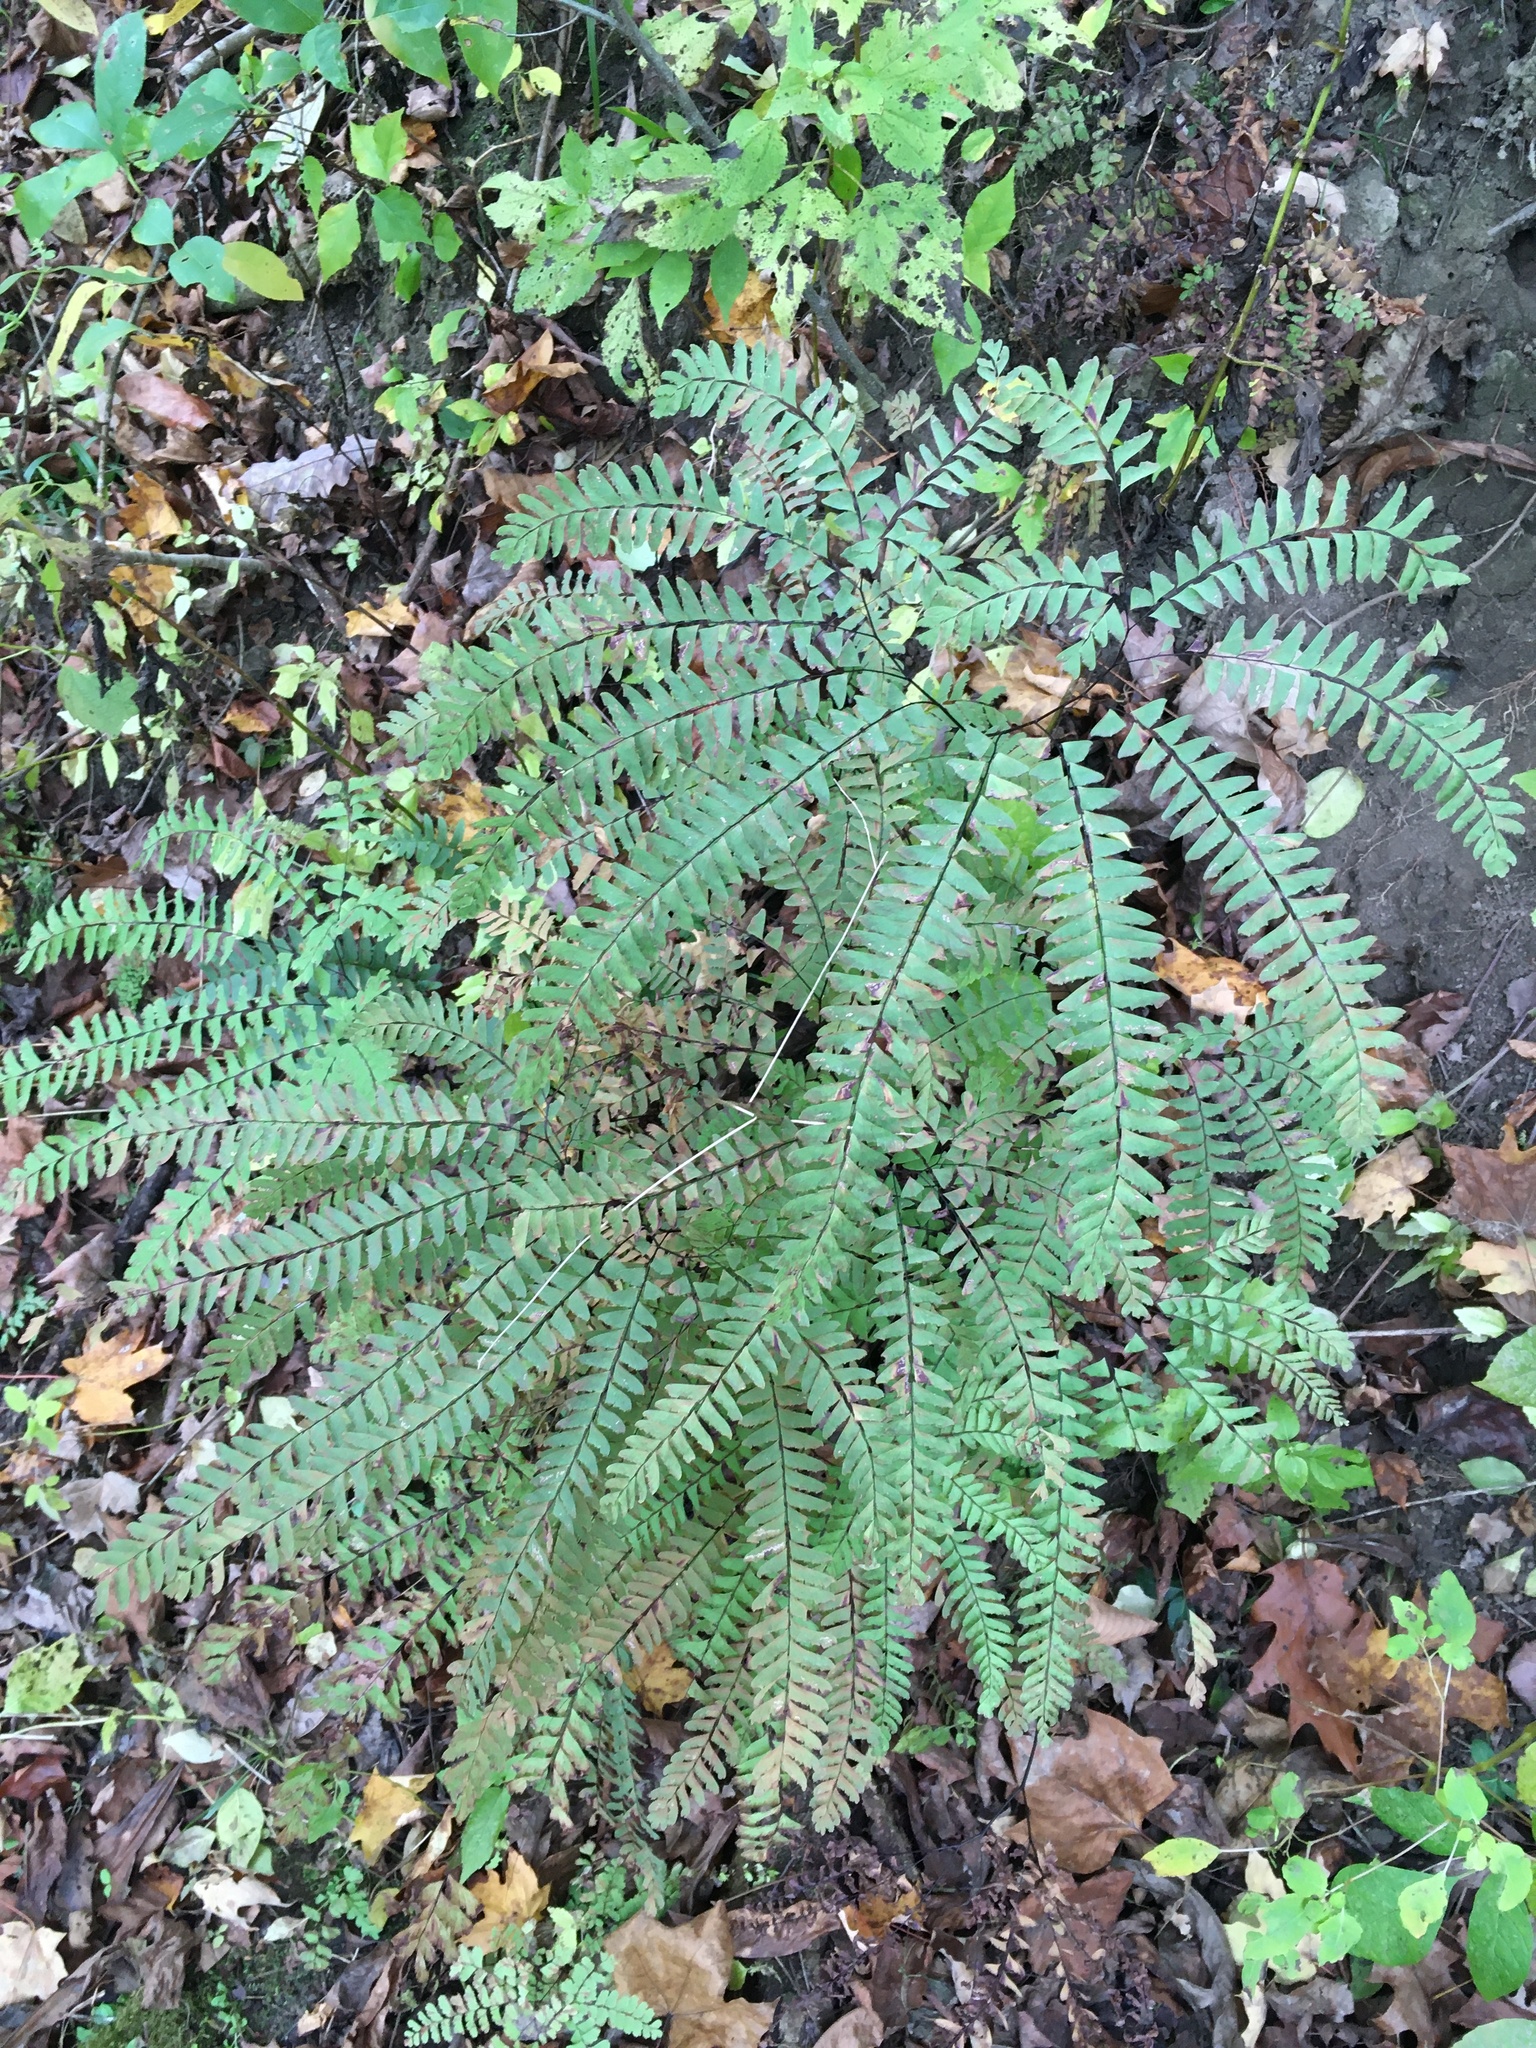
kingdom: Plantae
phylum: Tracheophyta
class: Polypodiopsida
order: Polypodiales
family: Pteridaceae
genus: Adiantum
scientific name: Adiantum pedatum
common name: Five-finger fern
